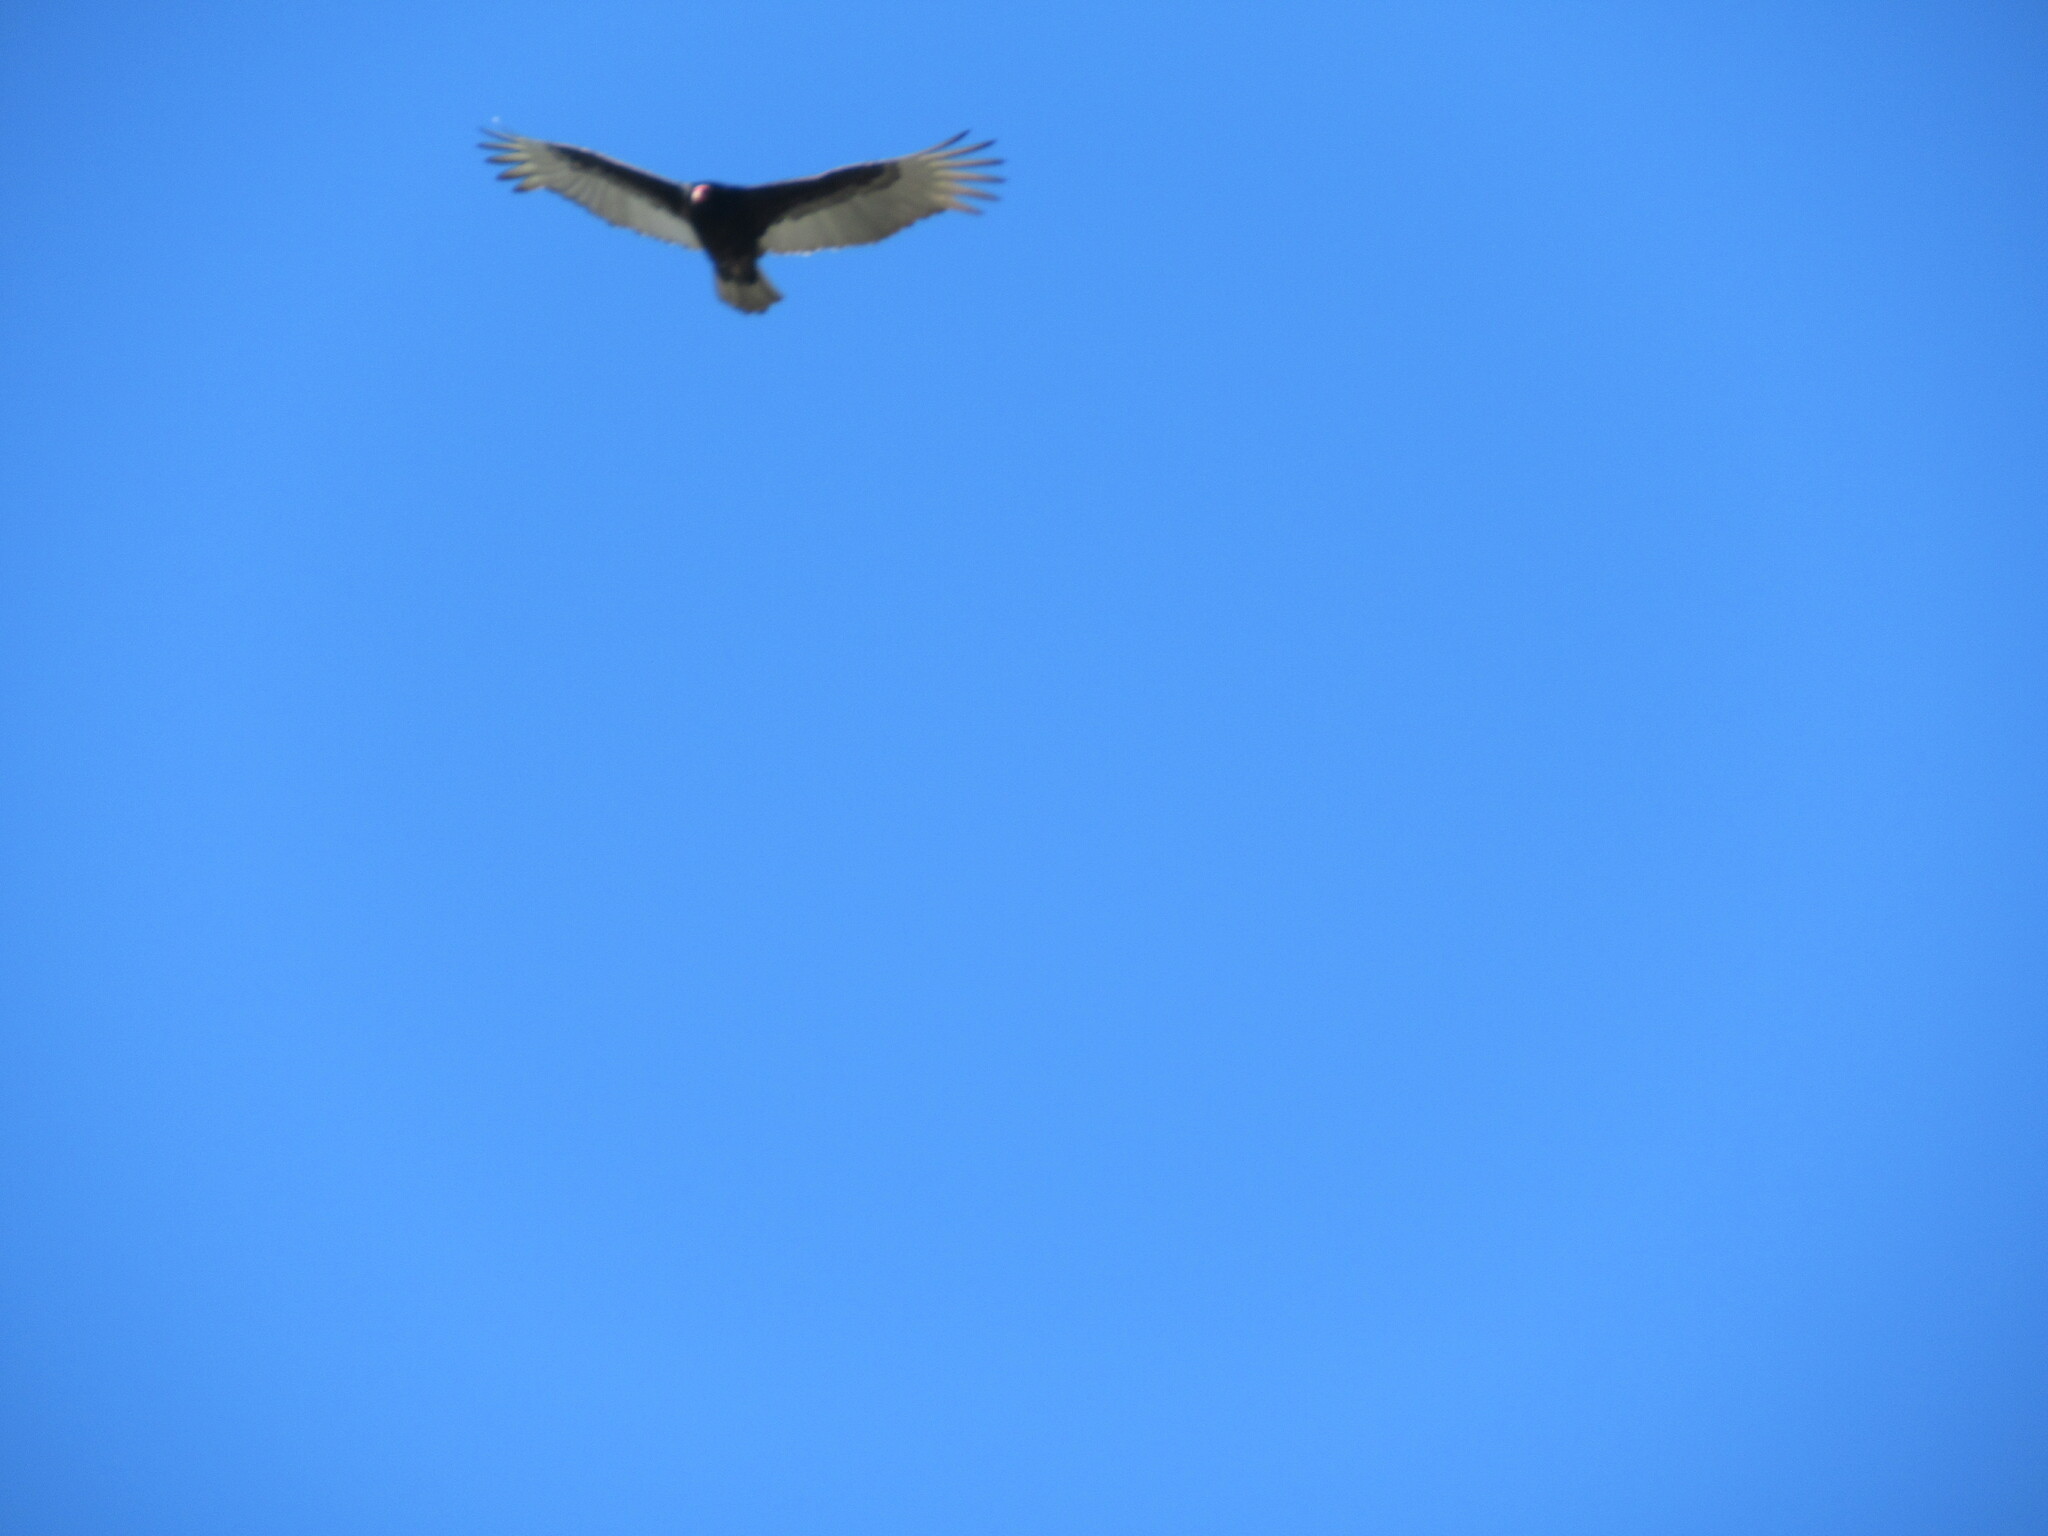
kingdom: Animalia
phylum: Chordata
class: Aves
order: Accipitriformes
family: Cathartidae
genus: Cathartes
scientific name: Cathartes aura
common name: Turkey vulture
